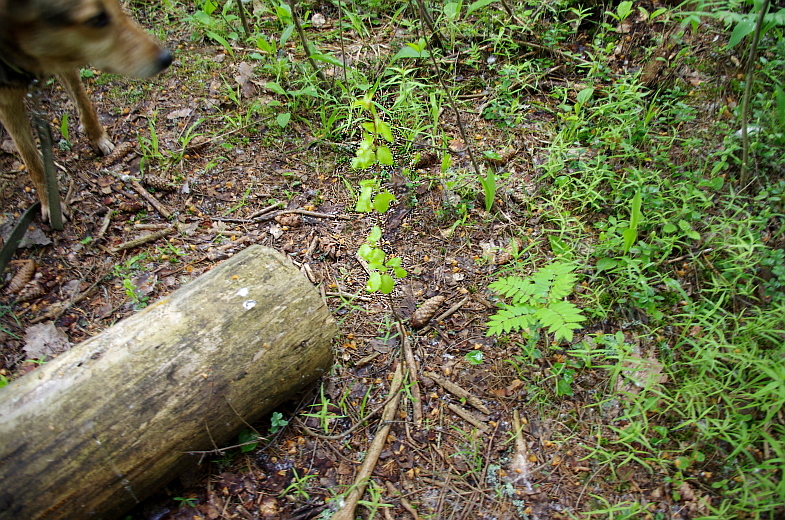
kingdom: Plantae
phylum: Tracheophyta
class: Magnoliopsida
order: Malpighiales
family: Salicaceae
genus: Populus
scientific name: Populus tremula
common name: European aspen
